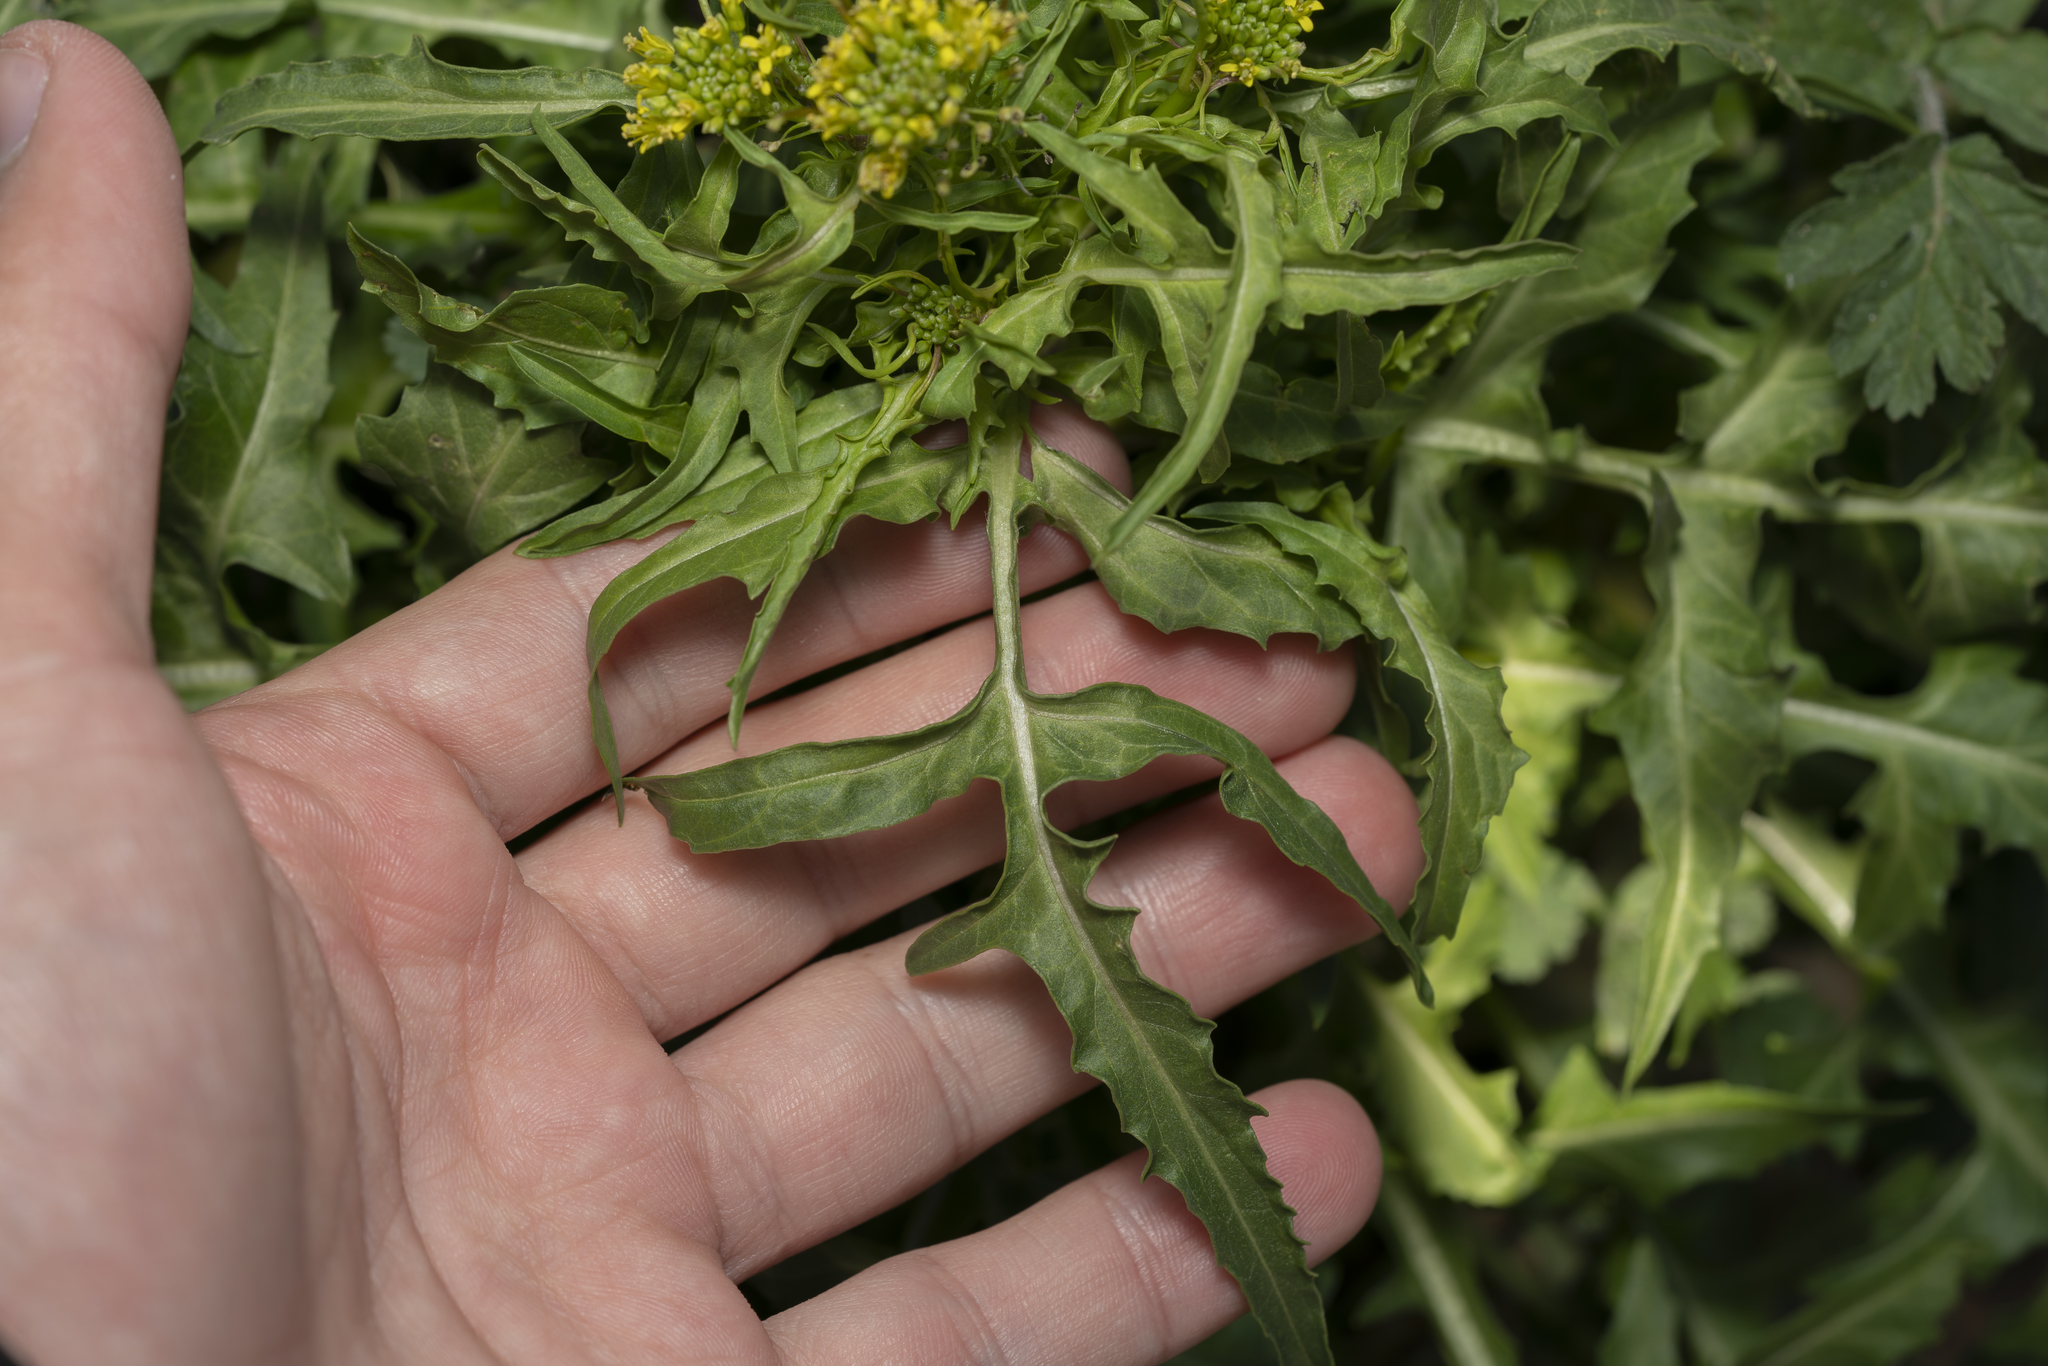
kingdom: Plantae
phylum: Tracheophyta
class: Magnoliopsida
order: Brassicales
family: Brassicaceae
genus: Sisymbrium
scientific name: Sisymbrium irio
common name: London rocket
